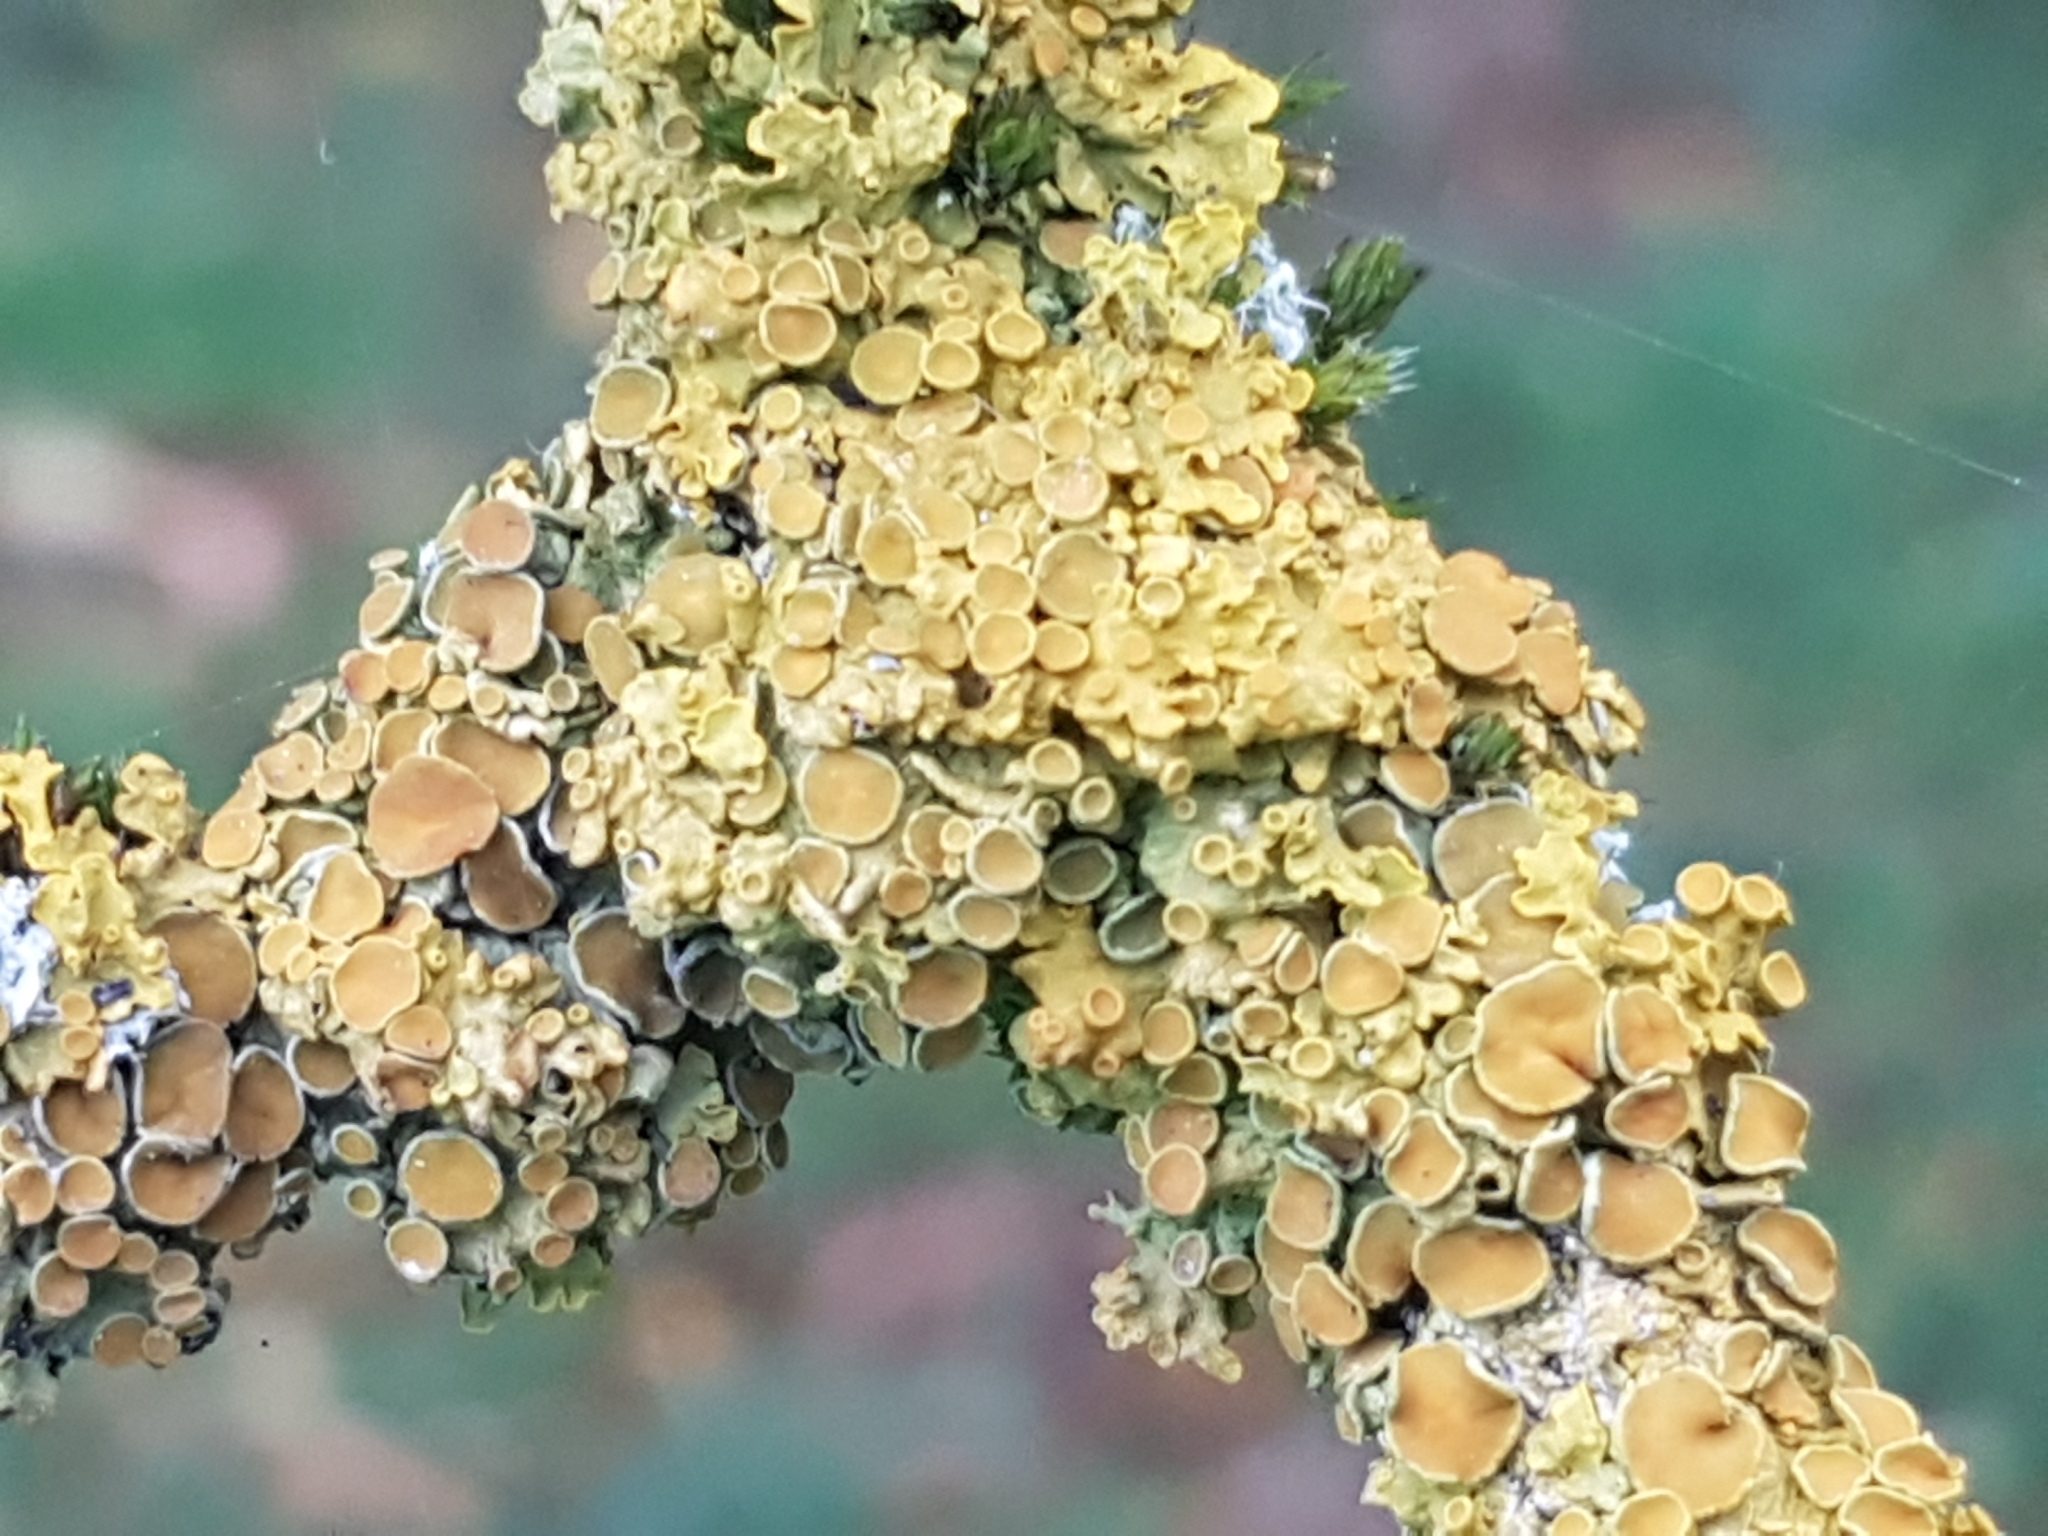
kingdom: Fungi
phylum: Ascomycota
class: Lecanoromycetes
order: Teloschistales
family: Teloschistaceae
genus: Xanthoria
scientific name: Xanthoria parietina
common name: Common orange lichen
